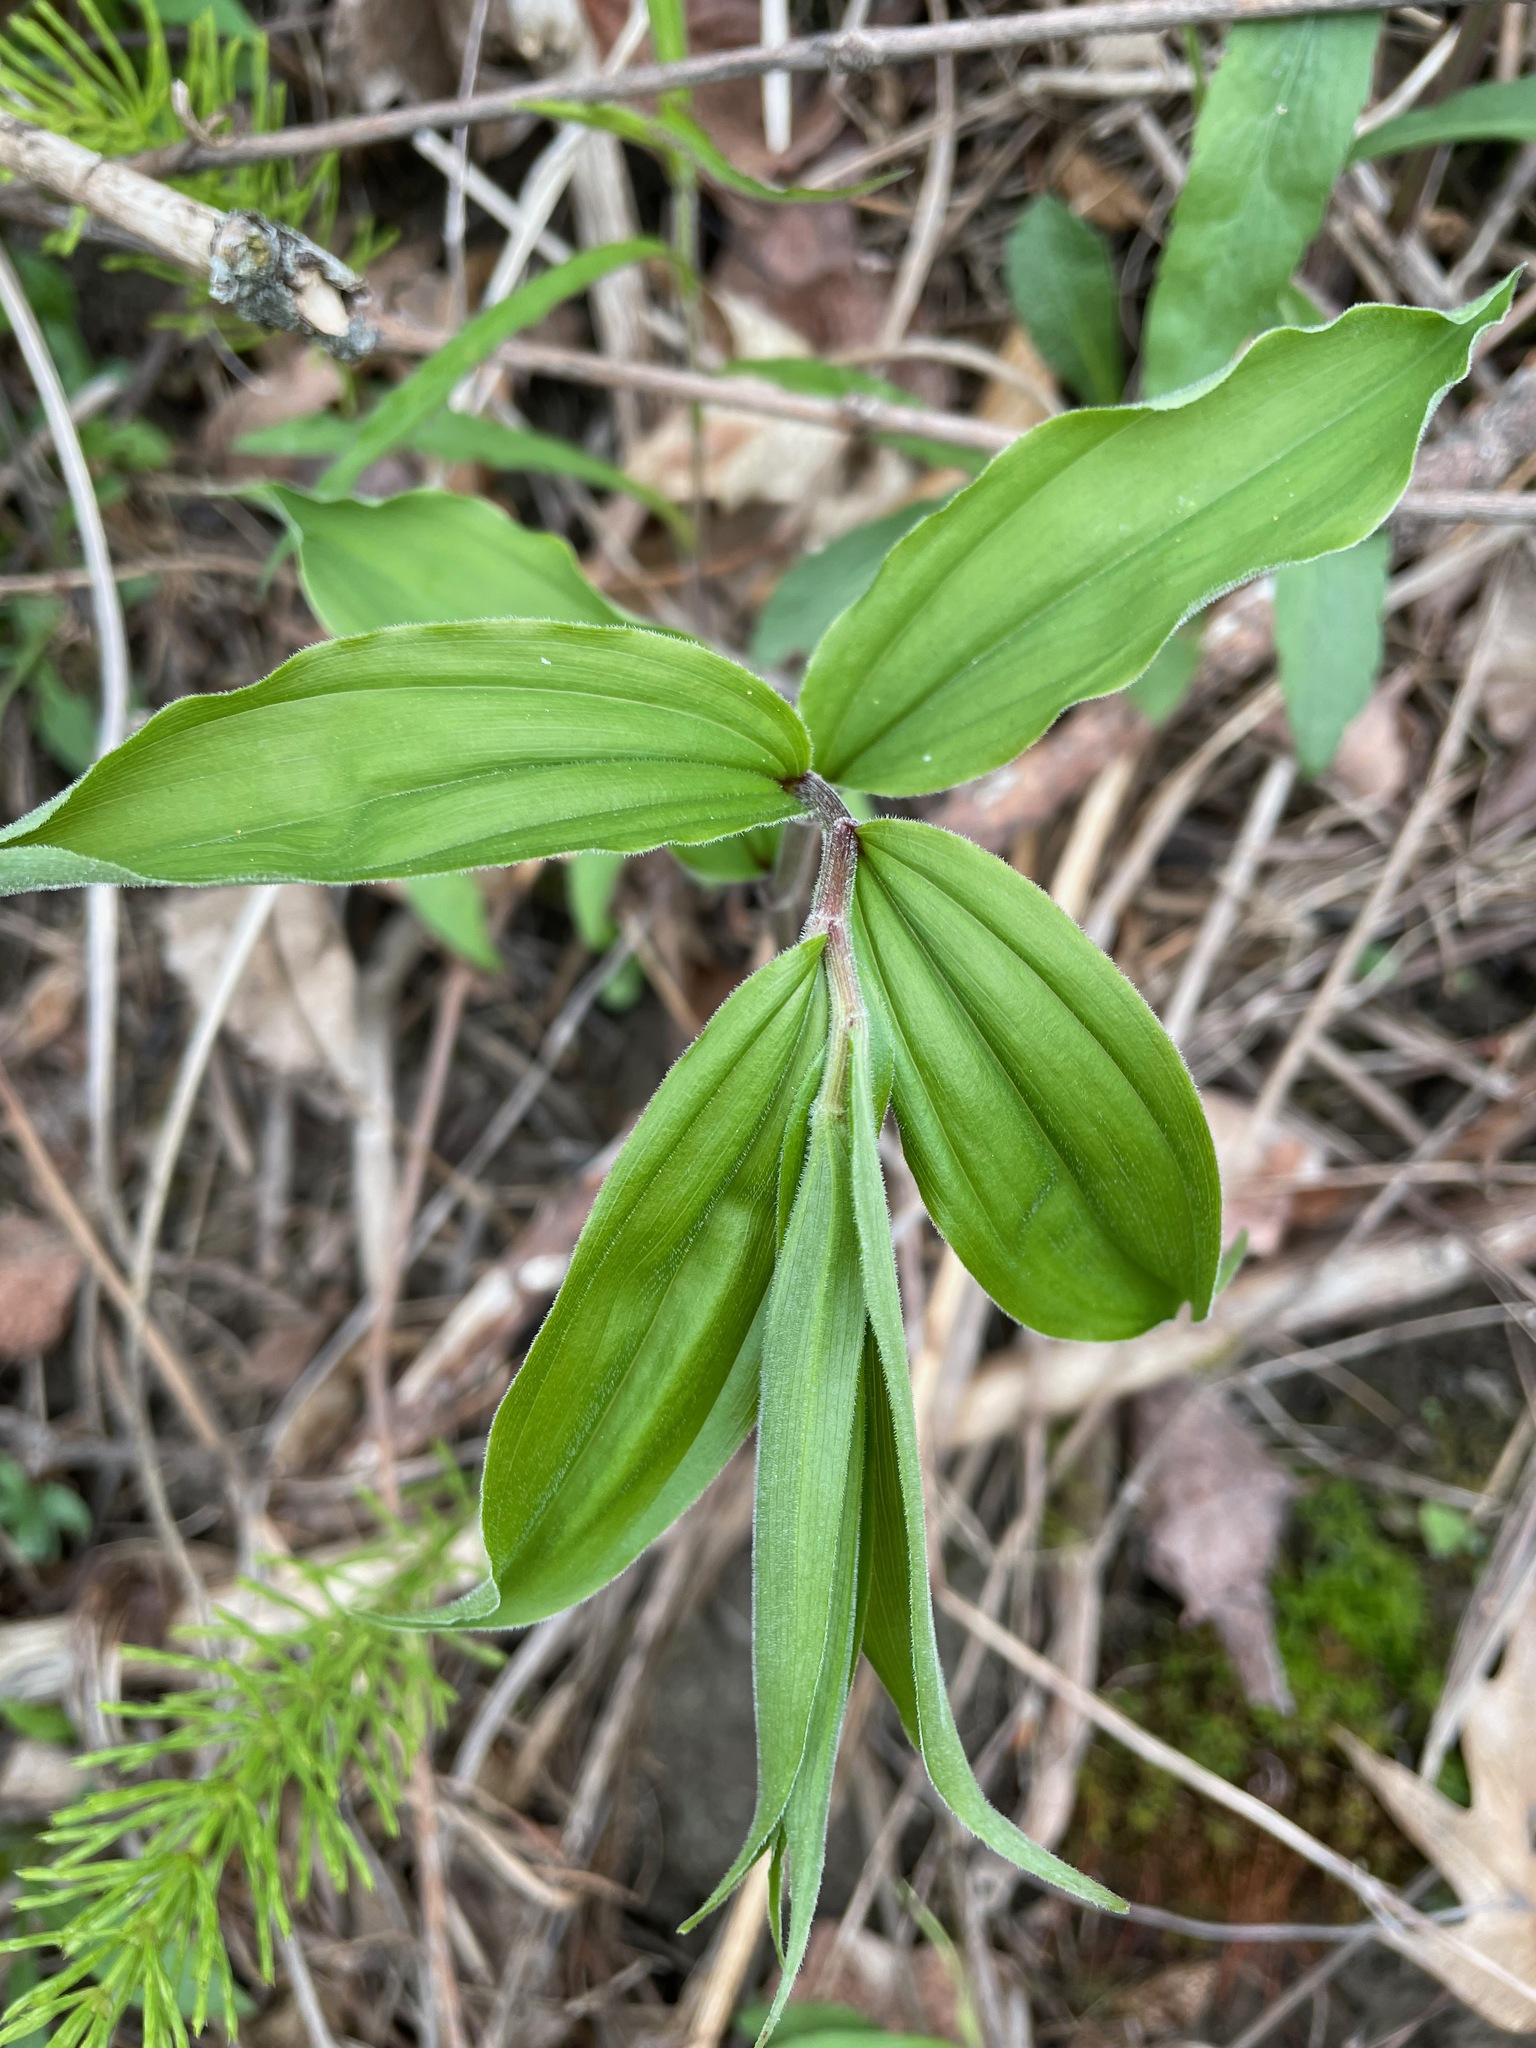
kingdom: Plantae
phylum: Tracheophyta
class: Liliopsida
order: Asparagales
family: Asparagaceae
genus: Maianthemum
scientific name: Maianthemum racemosum
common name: False spikenard
